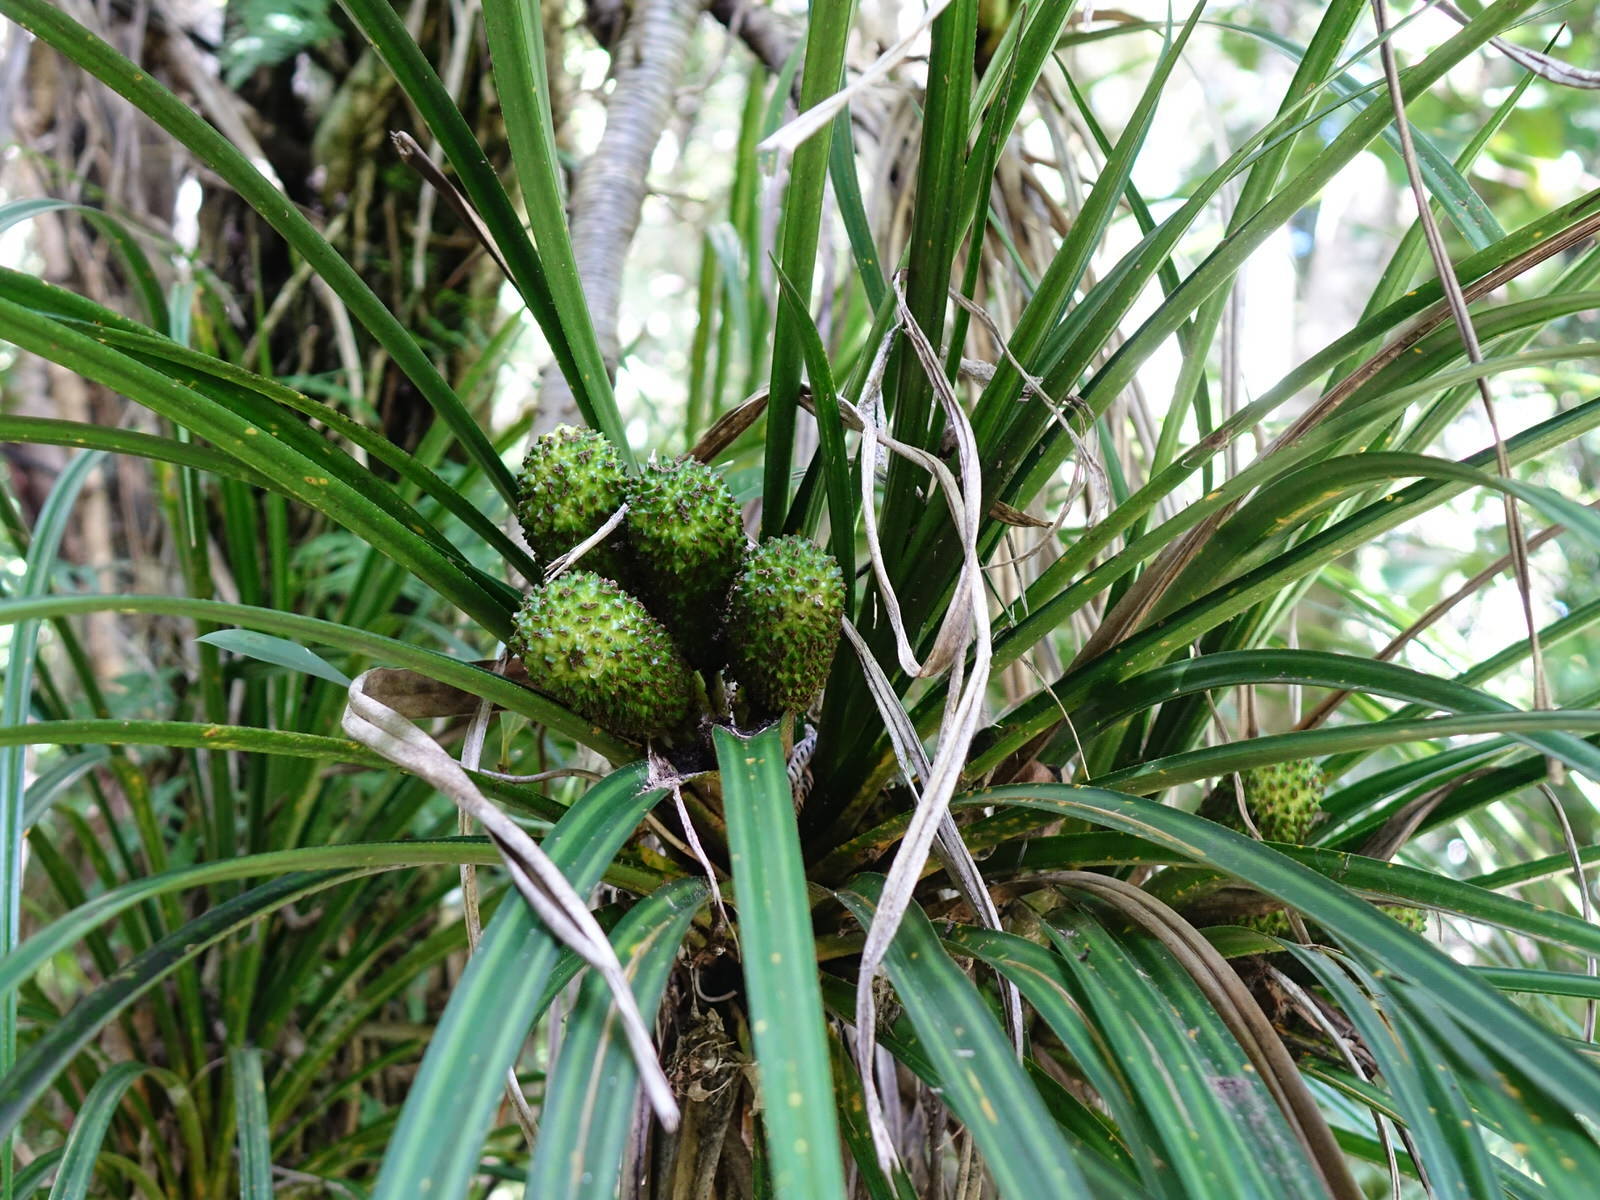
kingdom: Plantae
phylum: Tracheophyta
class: Liliopsida
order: Pandanales
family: Pandanaceae
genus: Freycinetia
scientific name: Freycinetia banksii
